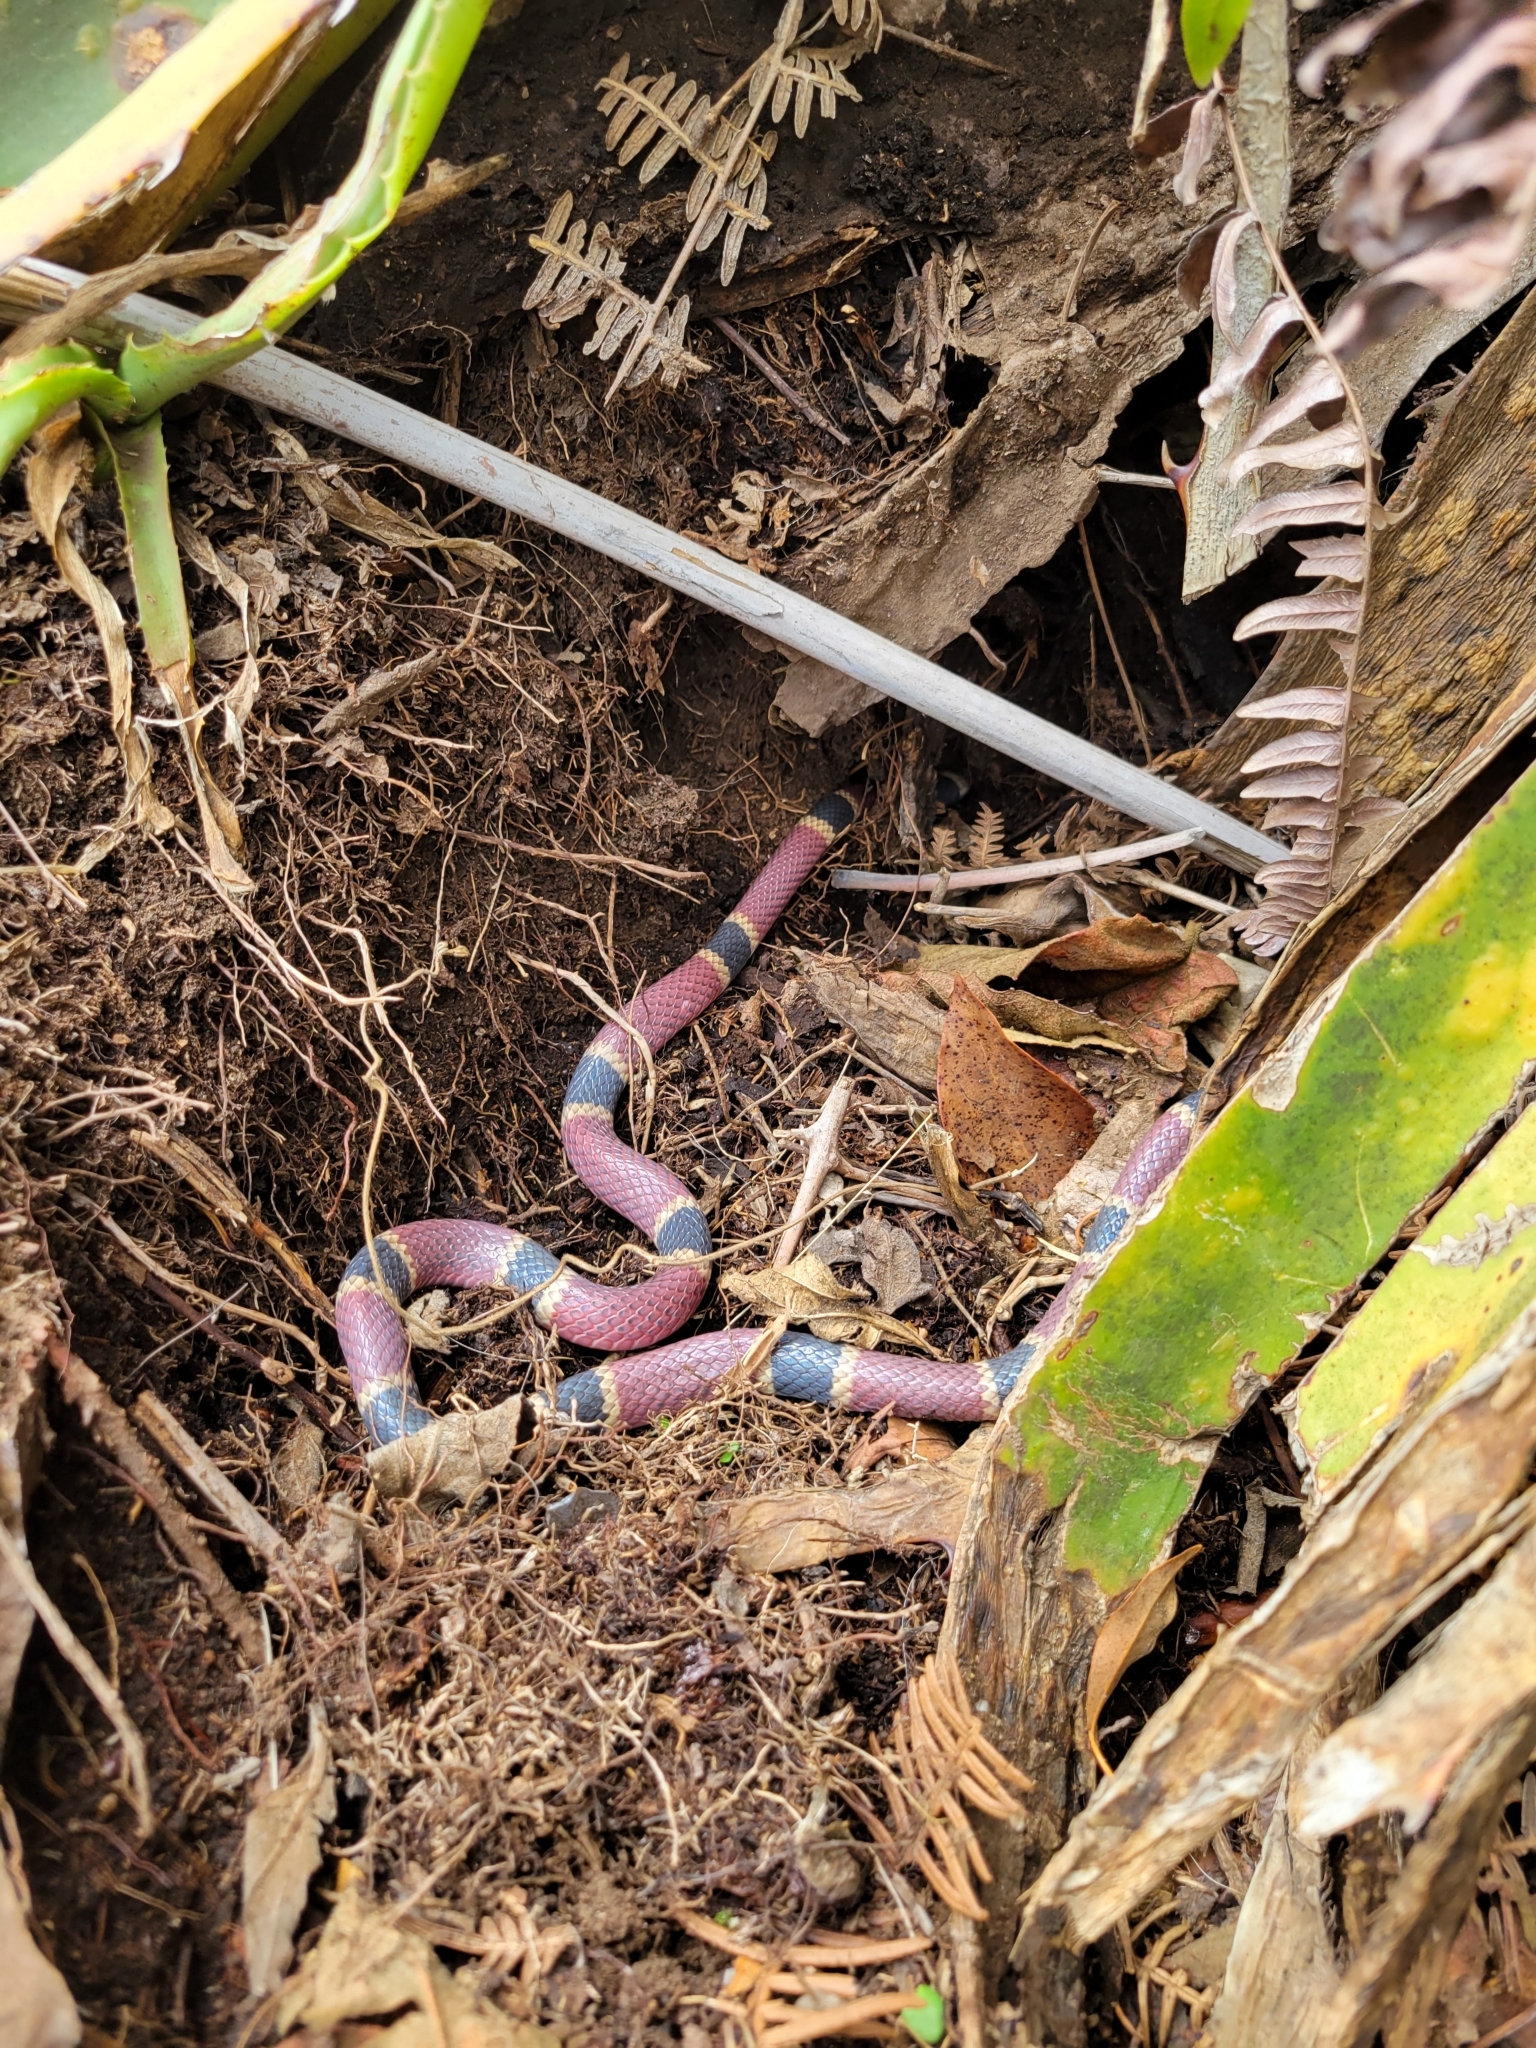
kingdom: Animalia
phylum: Chordata
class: Squamata
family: Elapidae
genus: Micrurus
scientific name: Micrurus nigrocinctus
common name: Babaspul [babaspul]
